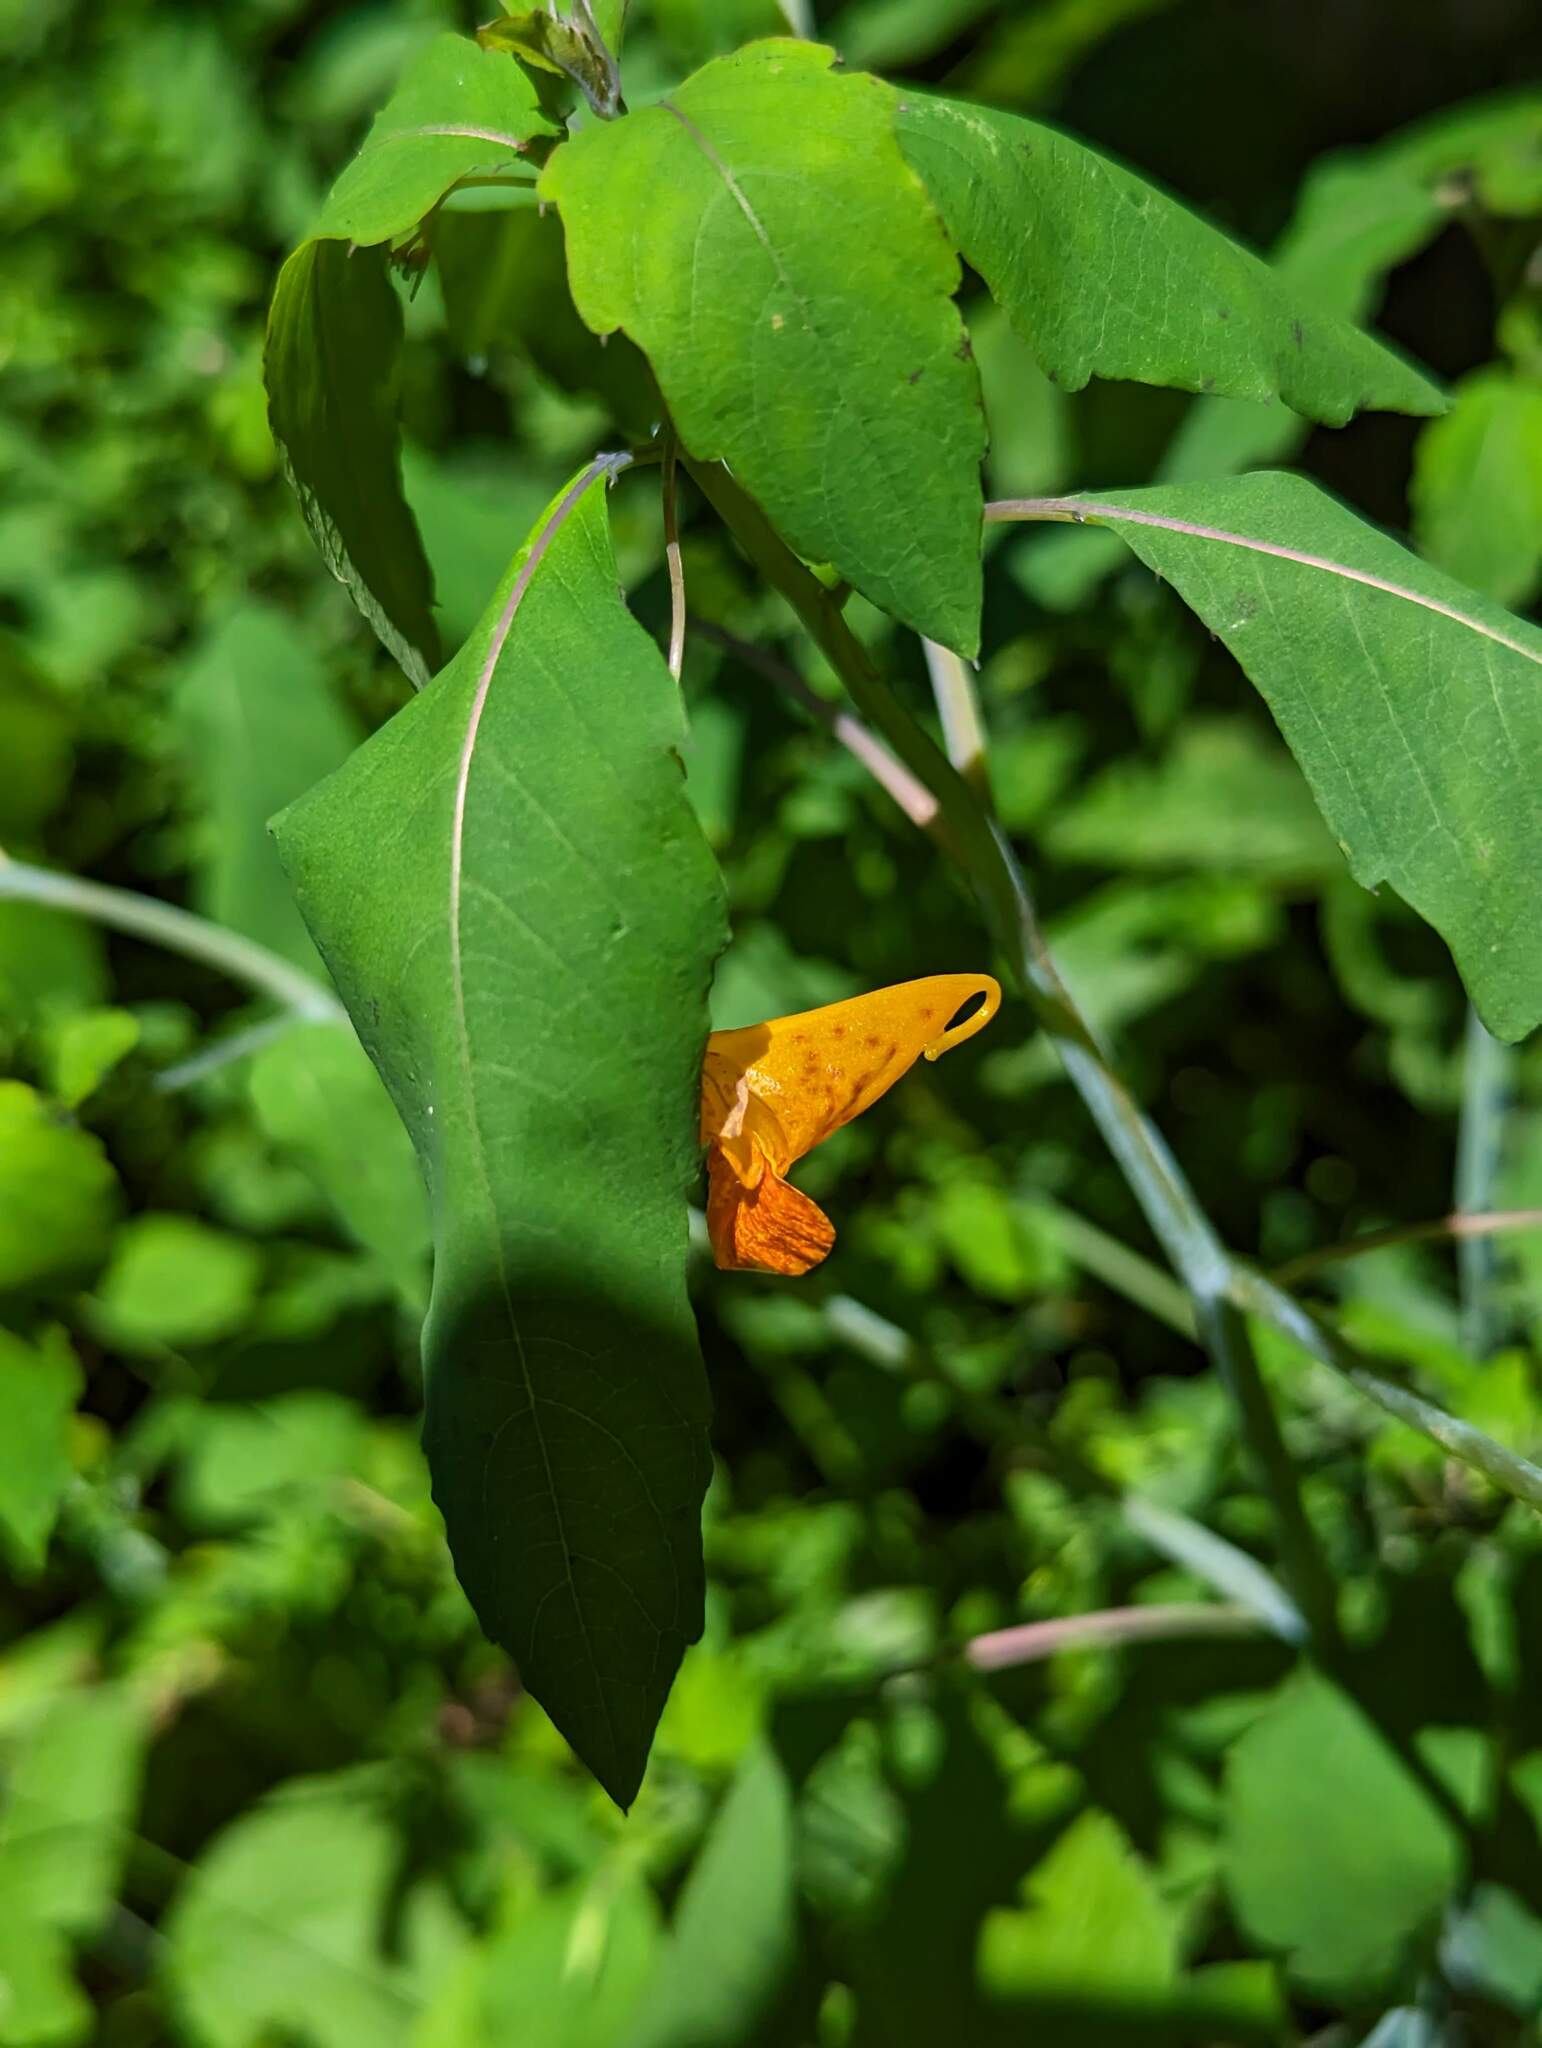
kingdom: Plantae
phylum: Tracheophyta
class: Magnoliopsida
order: Ericales
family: Balsaminaceae
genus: Impatiens
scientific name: Impatiens capensis
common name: Orange balsam
